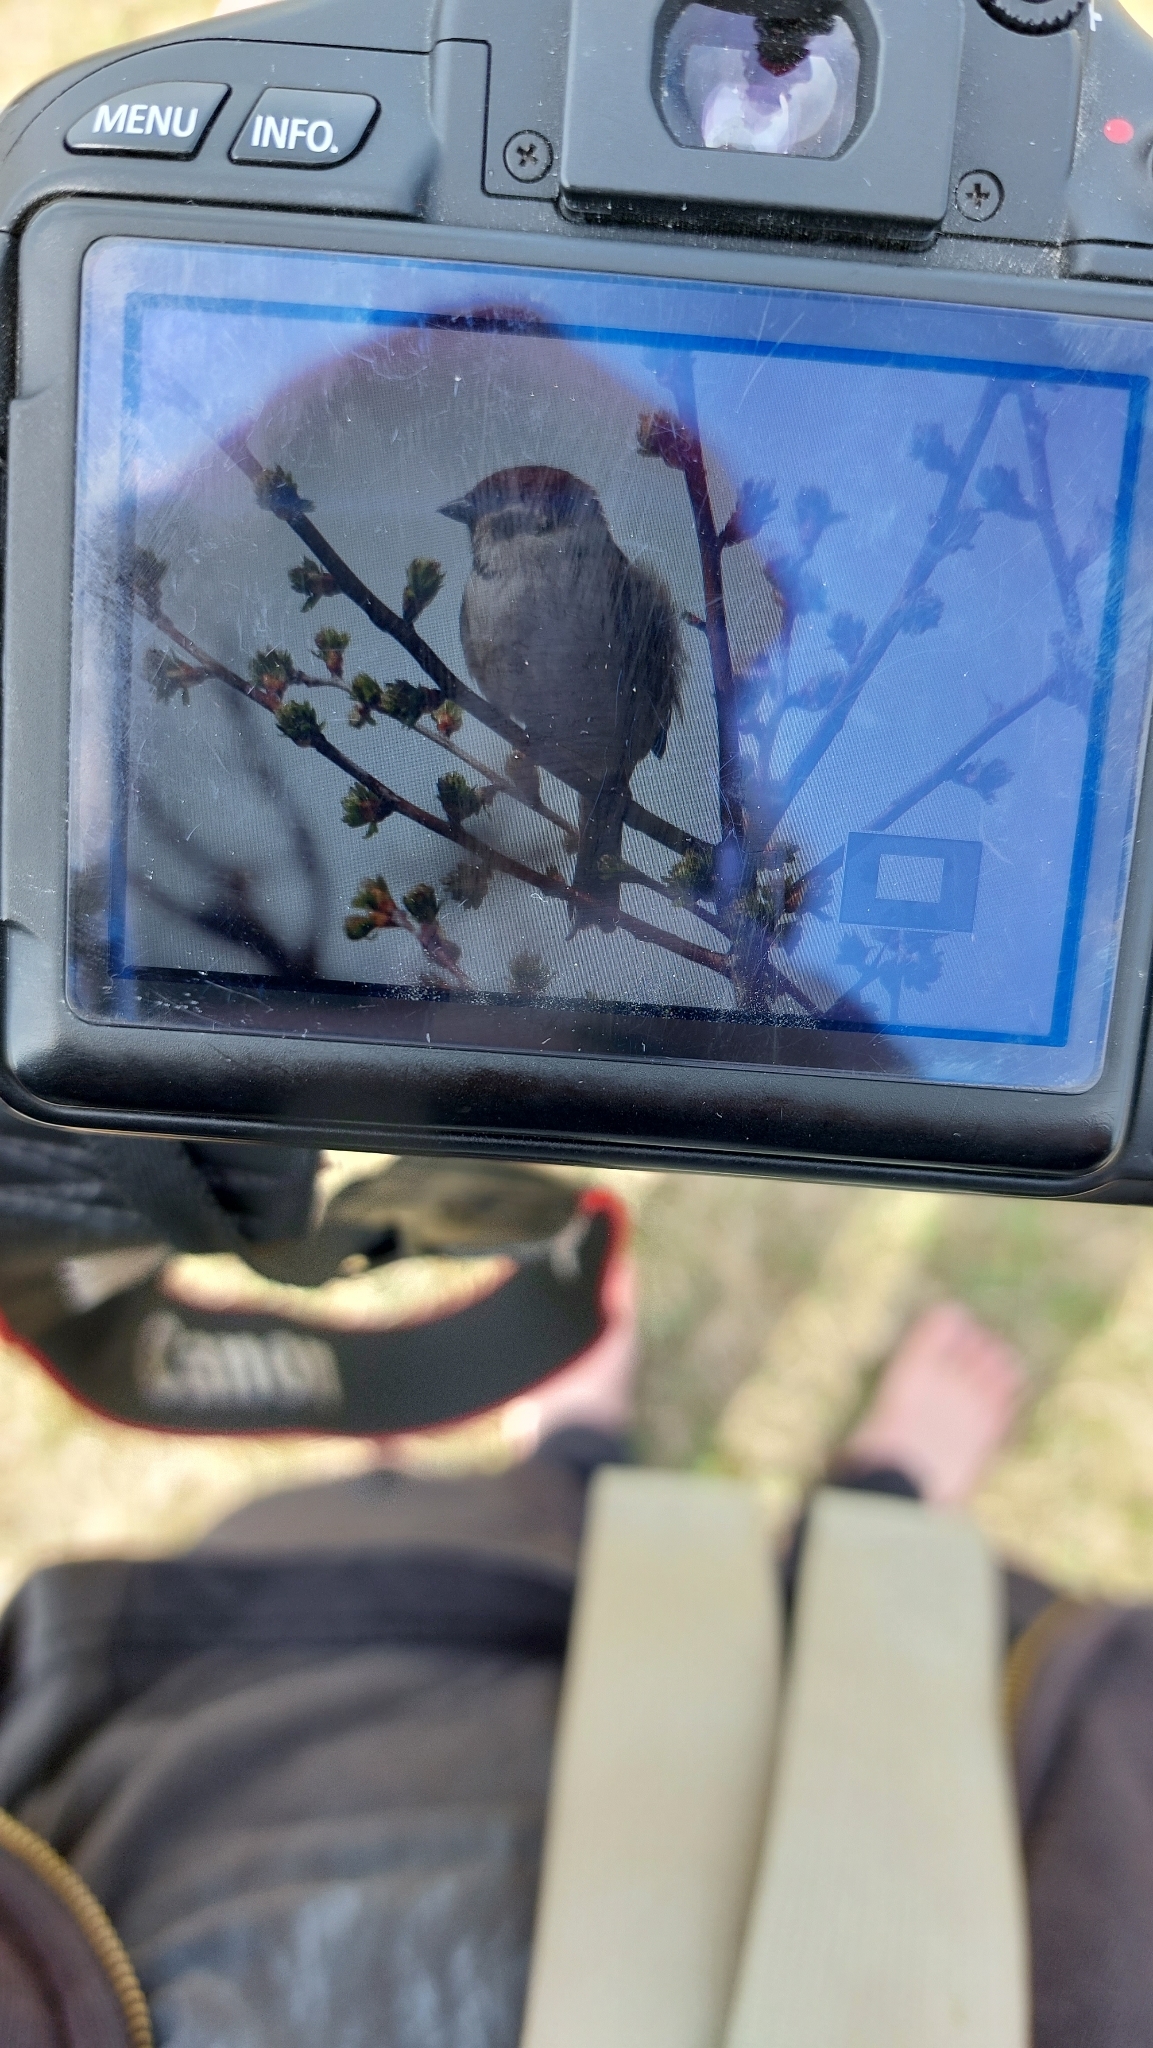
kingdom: Animalia
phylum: Chordata
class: Aves
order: Passeriformes
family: Passeridae
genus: Passer
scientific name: Passer montanus
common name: Eurasian tree sparrow
